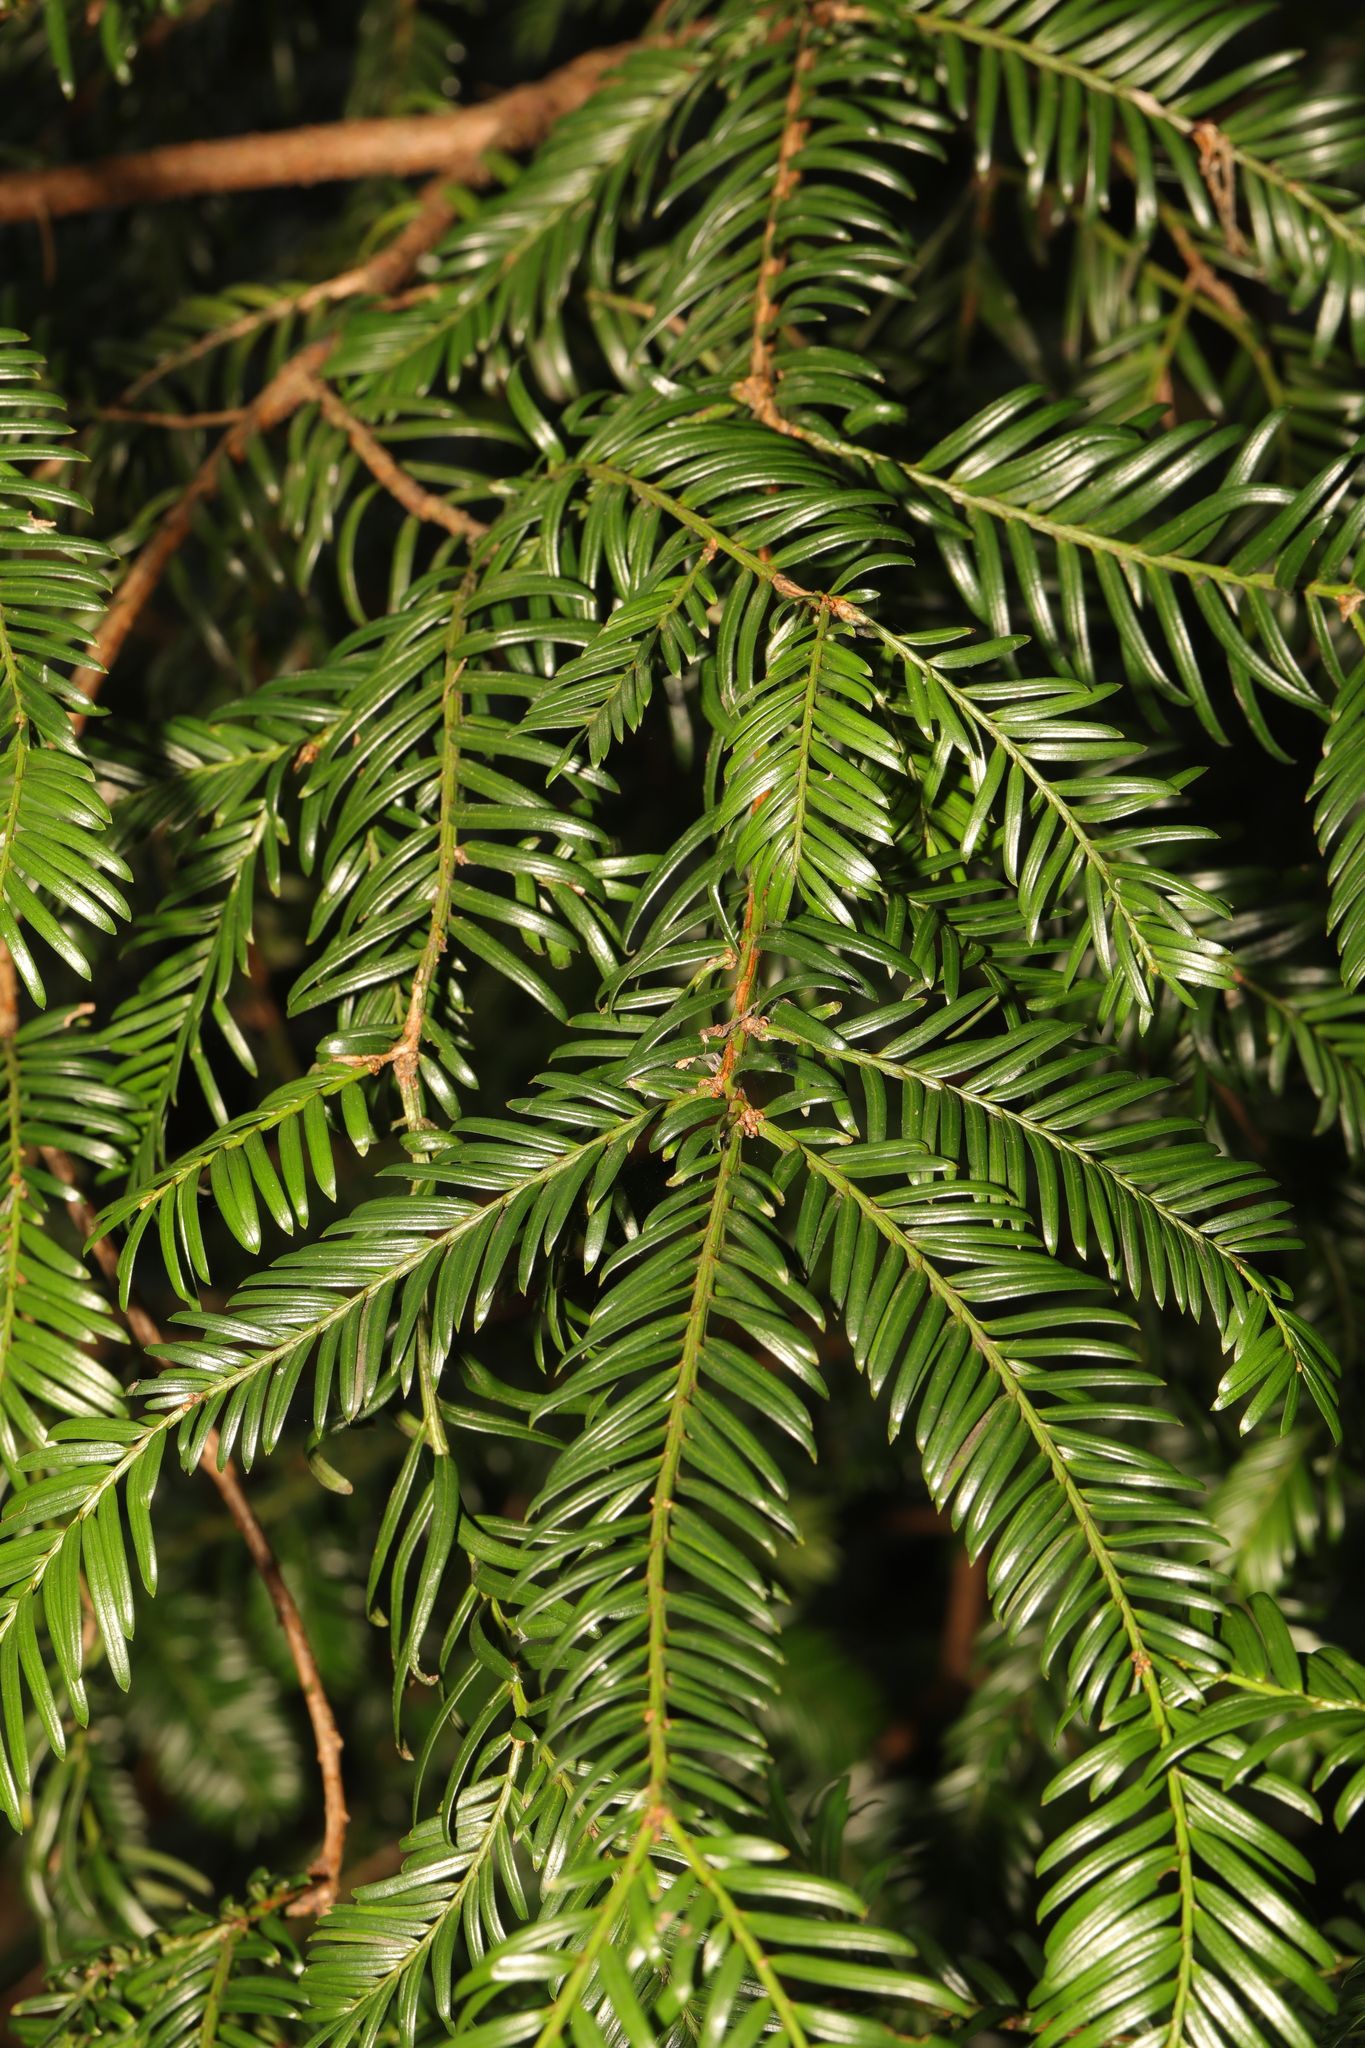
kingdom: Plantae
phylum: Tracheophyta
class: Pinopsida
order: Pinales
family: Taxaceae
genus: Taxus
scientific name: Taxus baccata
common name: Yew
